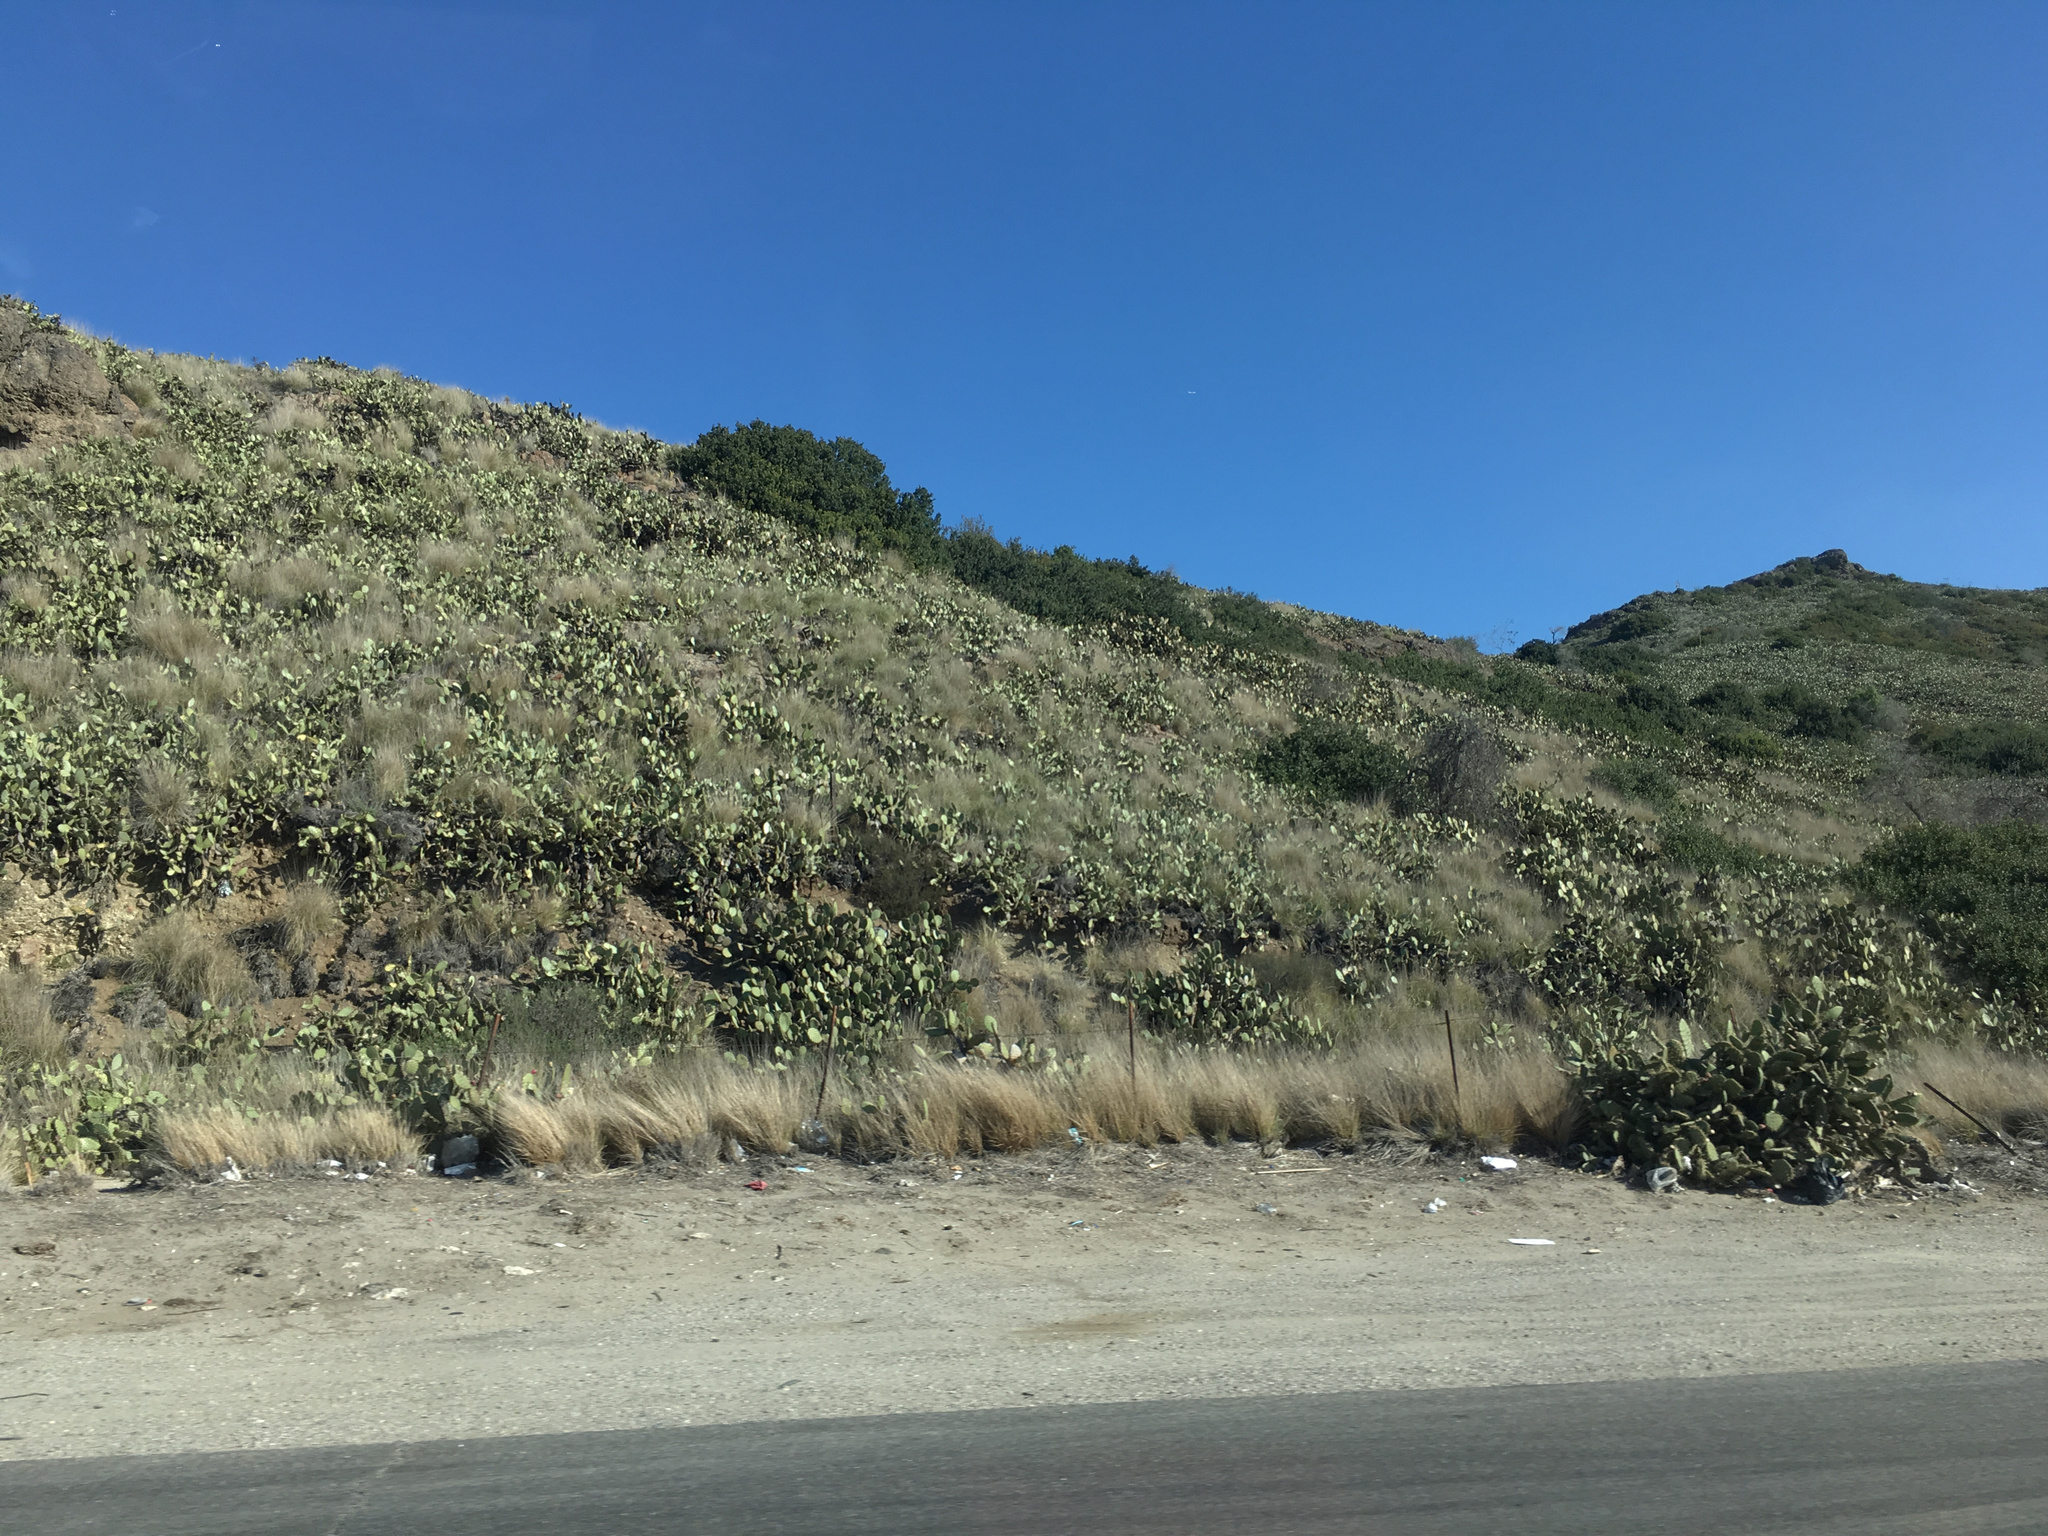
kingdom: Plantae
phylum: Tracheophyta
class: Magnoliopsida
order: Caryophyllales
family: Cactaceae
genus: Opuntia
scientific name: Opuntia littoralis
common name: Coastal prickly-pear
